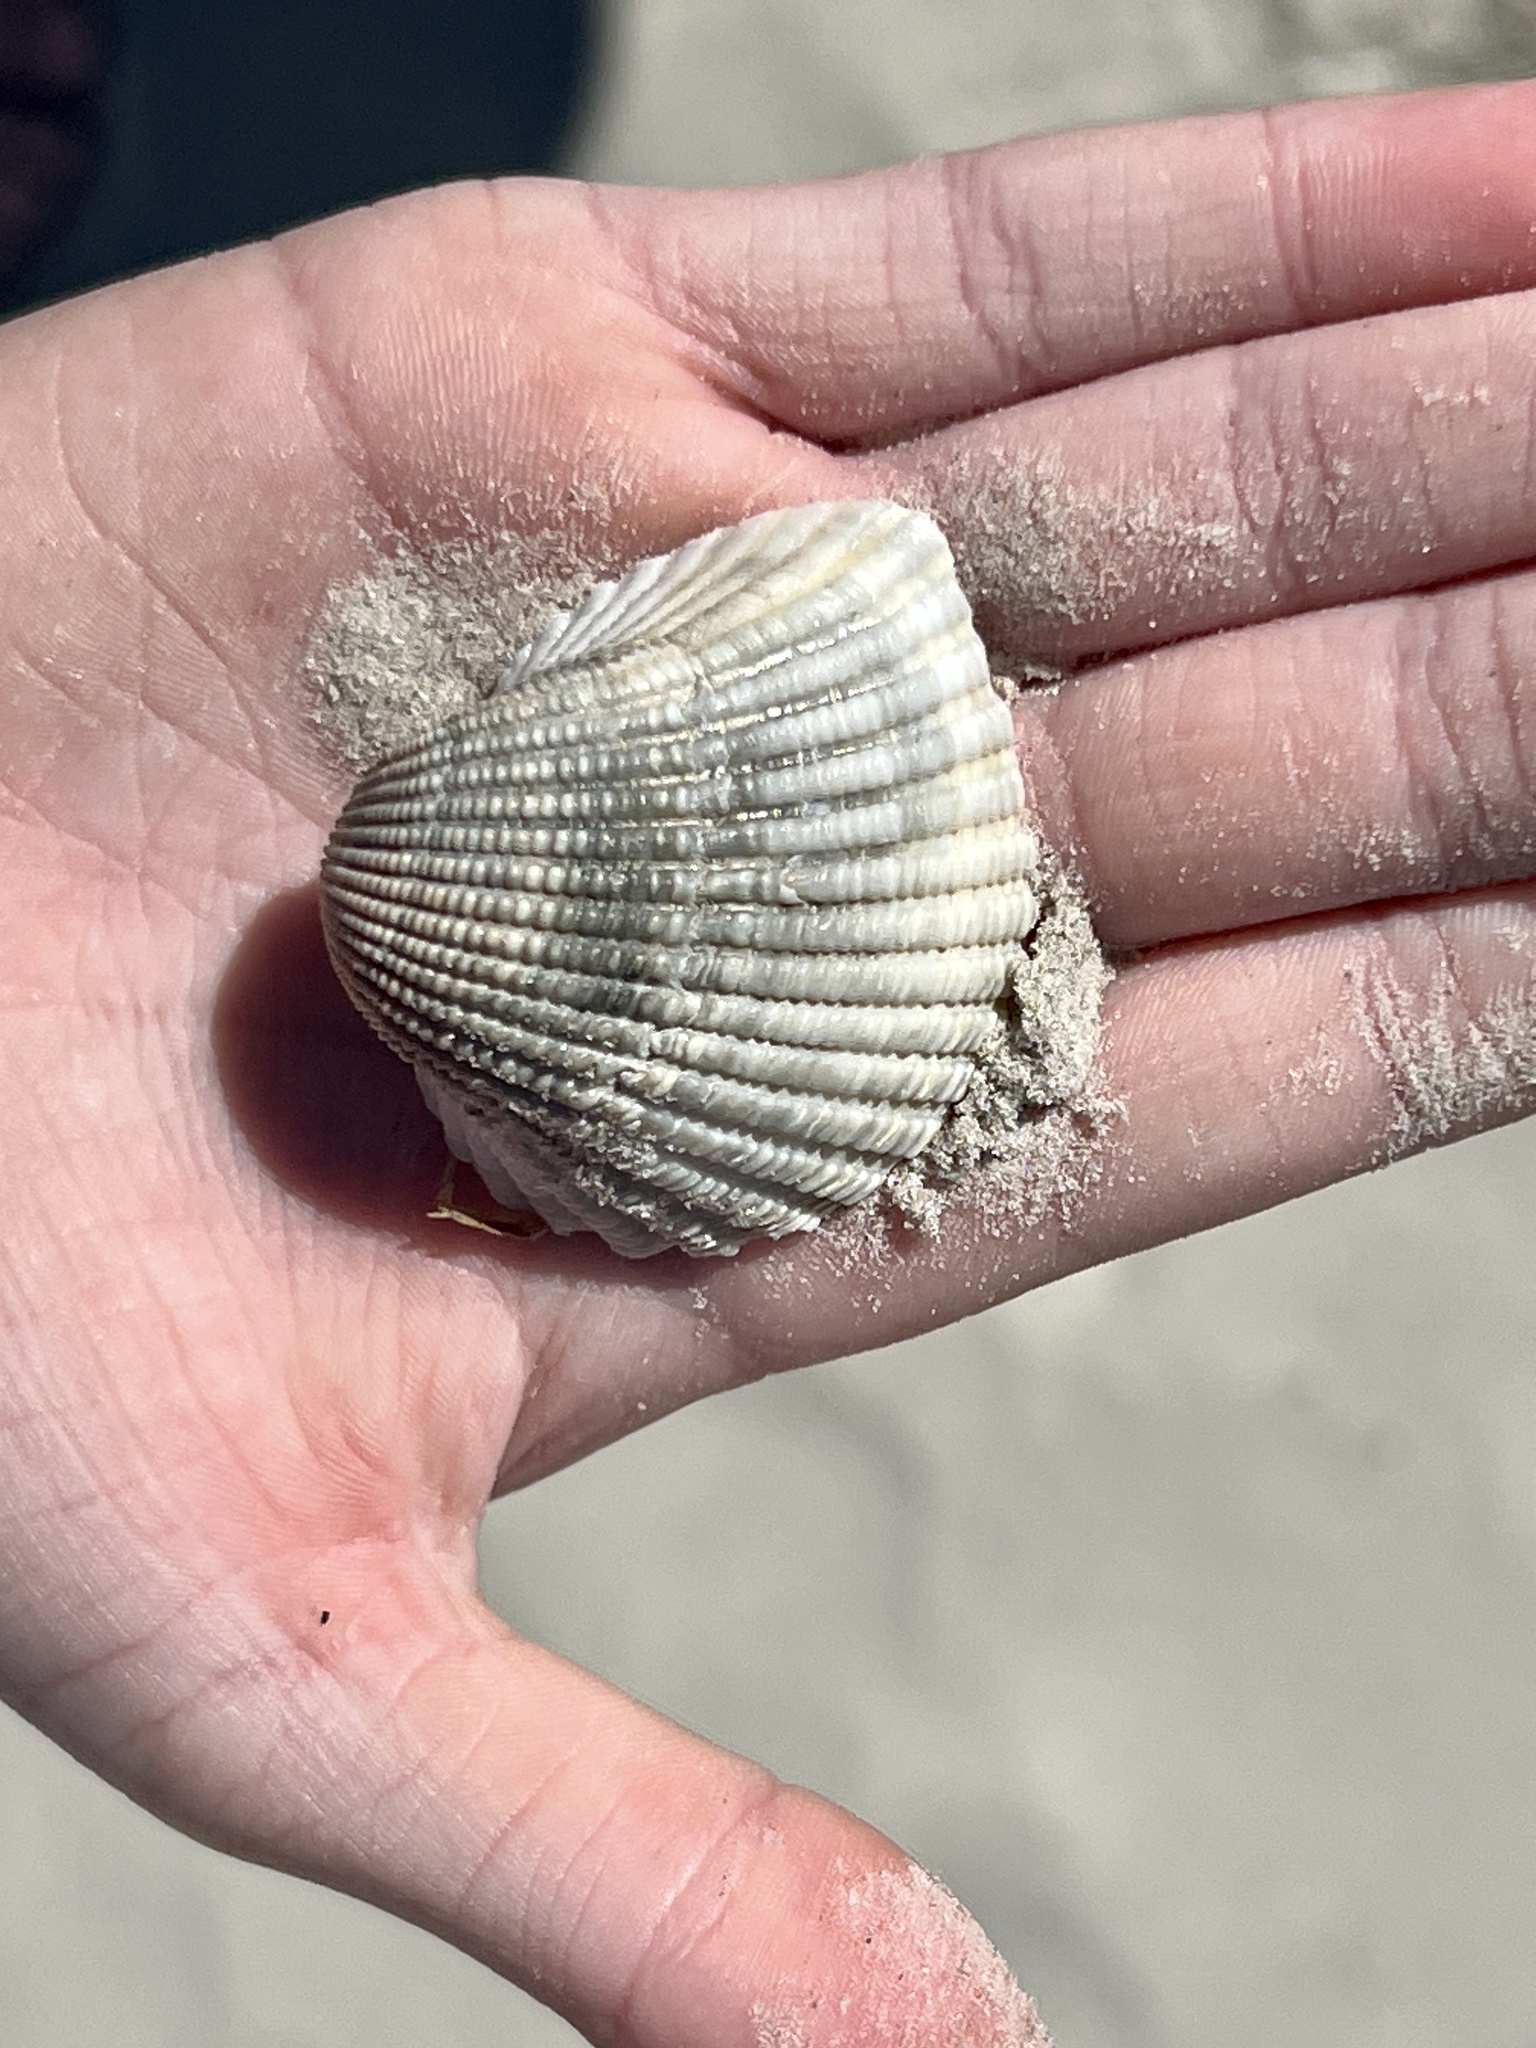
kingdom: Animalia
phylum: Mollusca
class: Bivalvia
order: Arcida
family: Arcidae
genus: Anadara
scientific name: Anadara brasiliana
